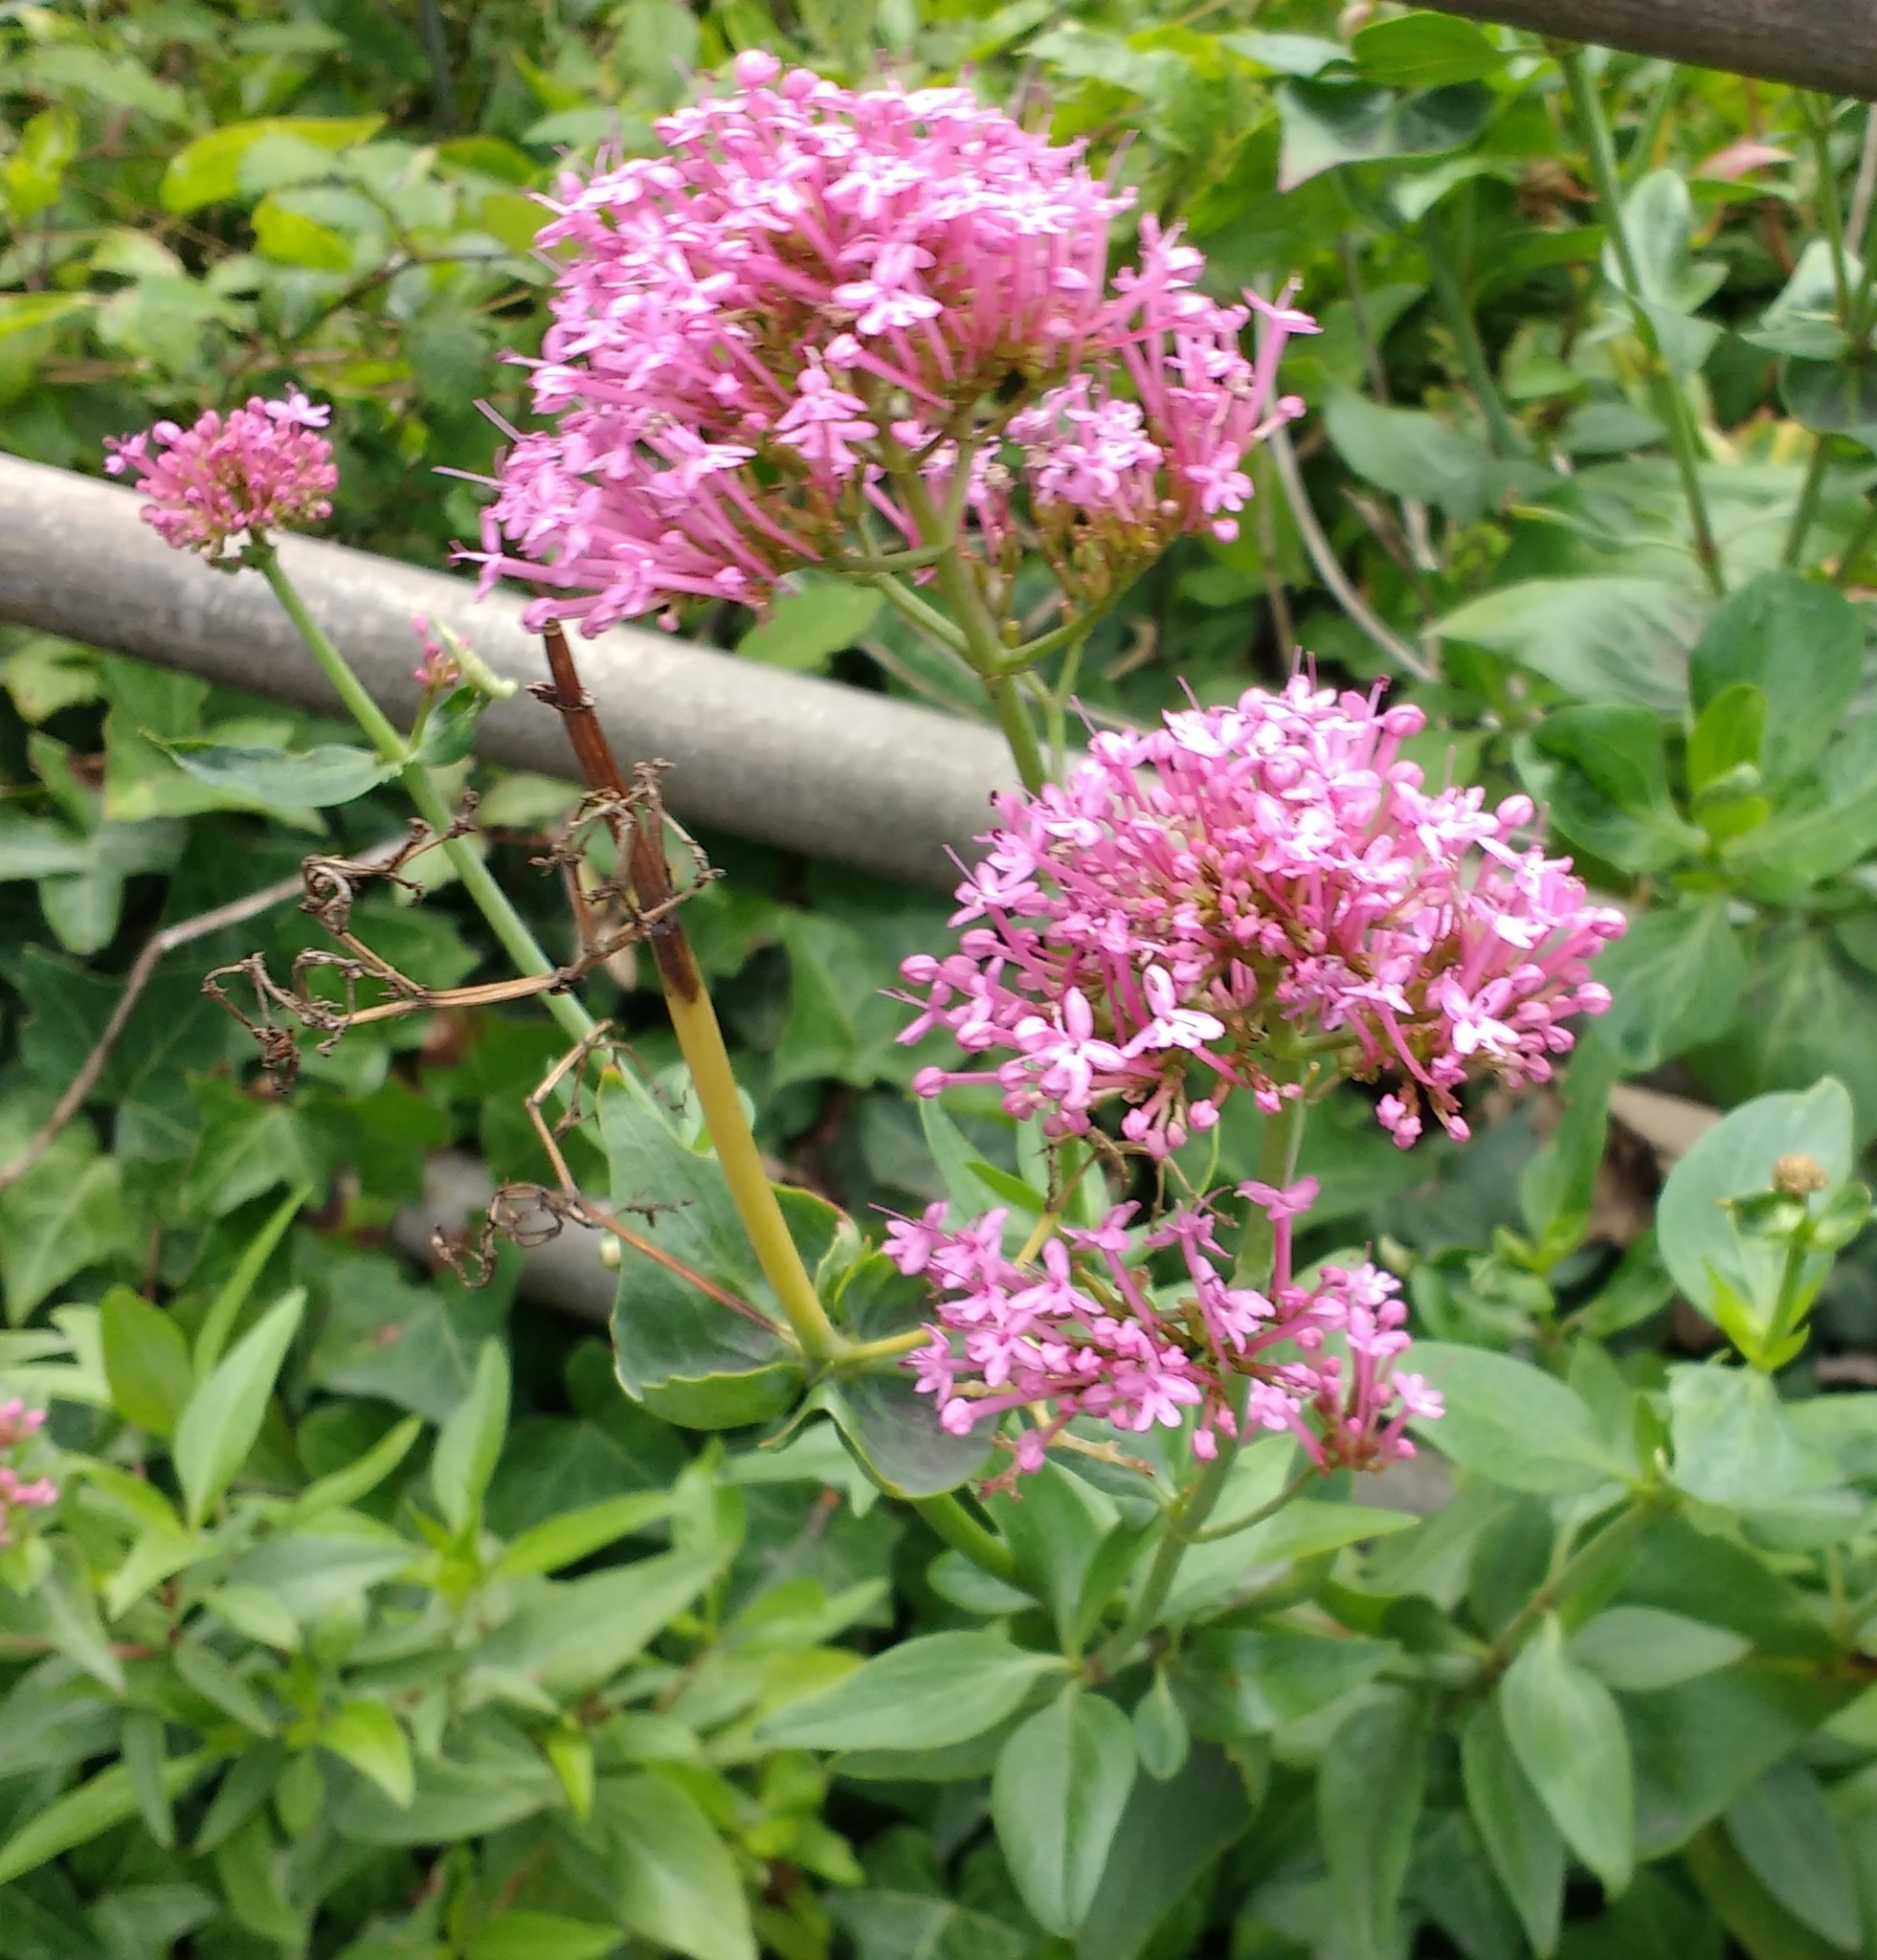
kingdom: Plantae
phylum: Tracheophyta
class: Magnoliopsida
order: Dipsacales
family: Caprifoliaceae
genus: Centranthus
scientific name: Centranthus ruber
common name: Red valerian
